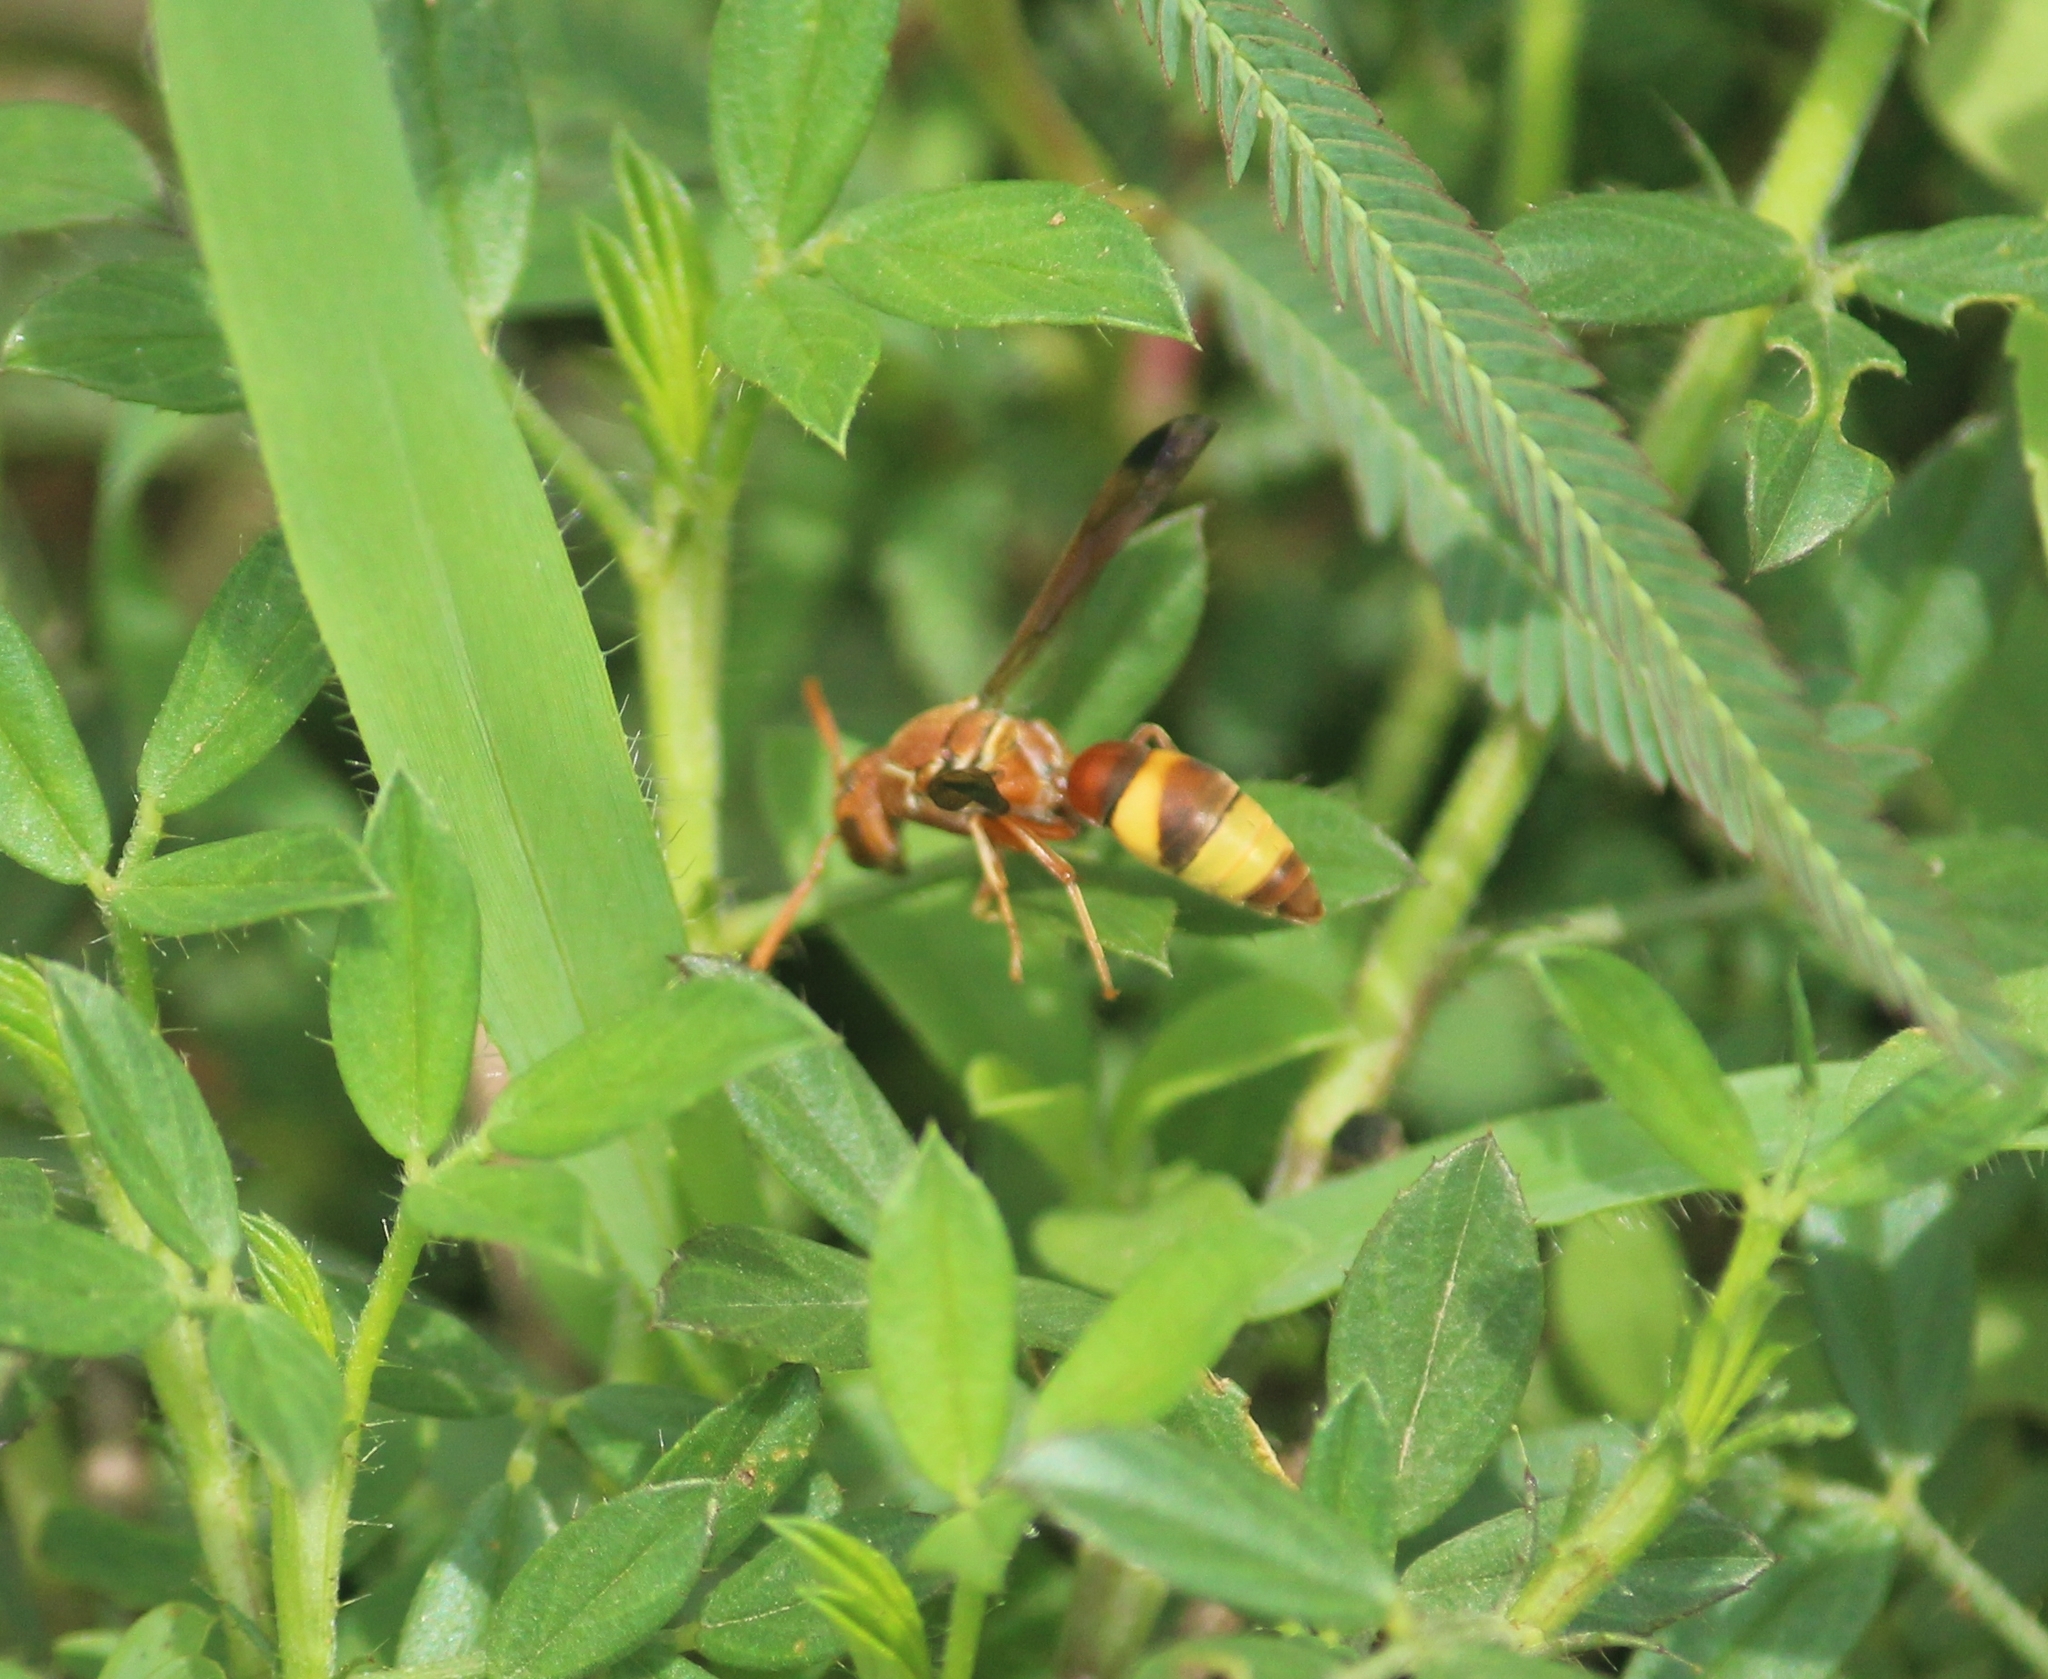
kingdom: Animalia
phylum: Arthropoda
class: Insecta
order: Hymenoptera
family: Eumenidae
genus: Antodynerus
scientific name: Antodynerus punctatipennis
